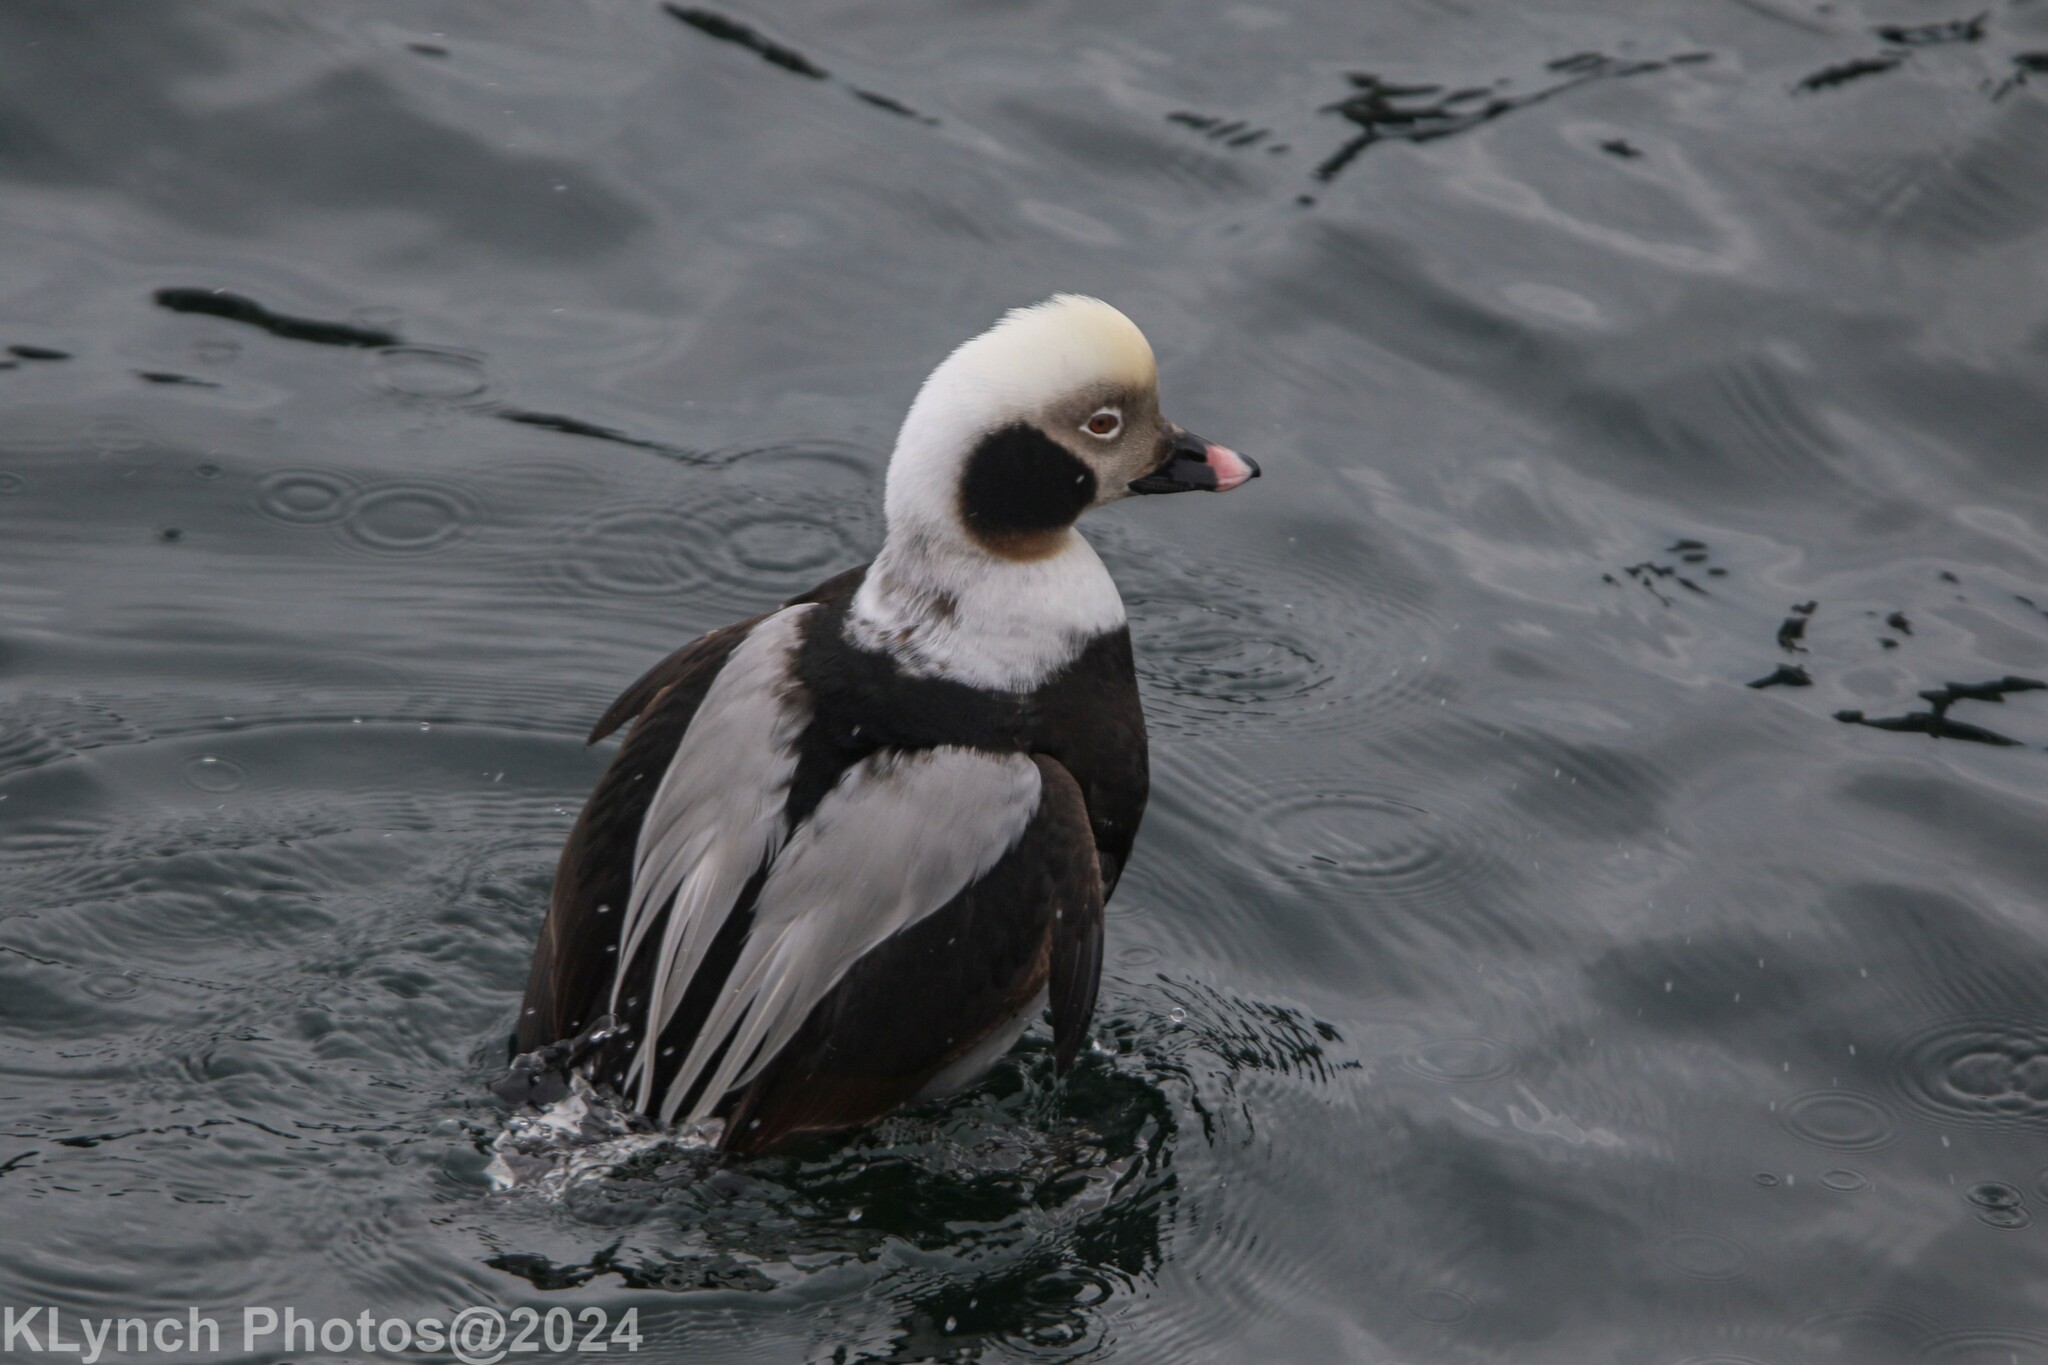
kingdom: Animalia
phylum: Chordata
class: Aves
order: Anseriformes
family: Anatidae
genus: Clangula
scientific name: Clangula hyemalis
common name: Long-tailed duck
